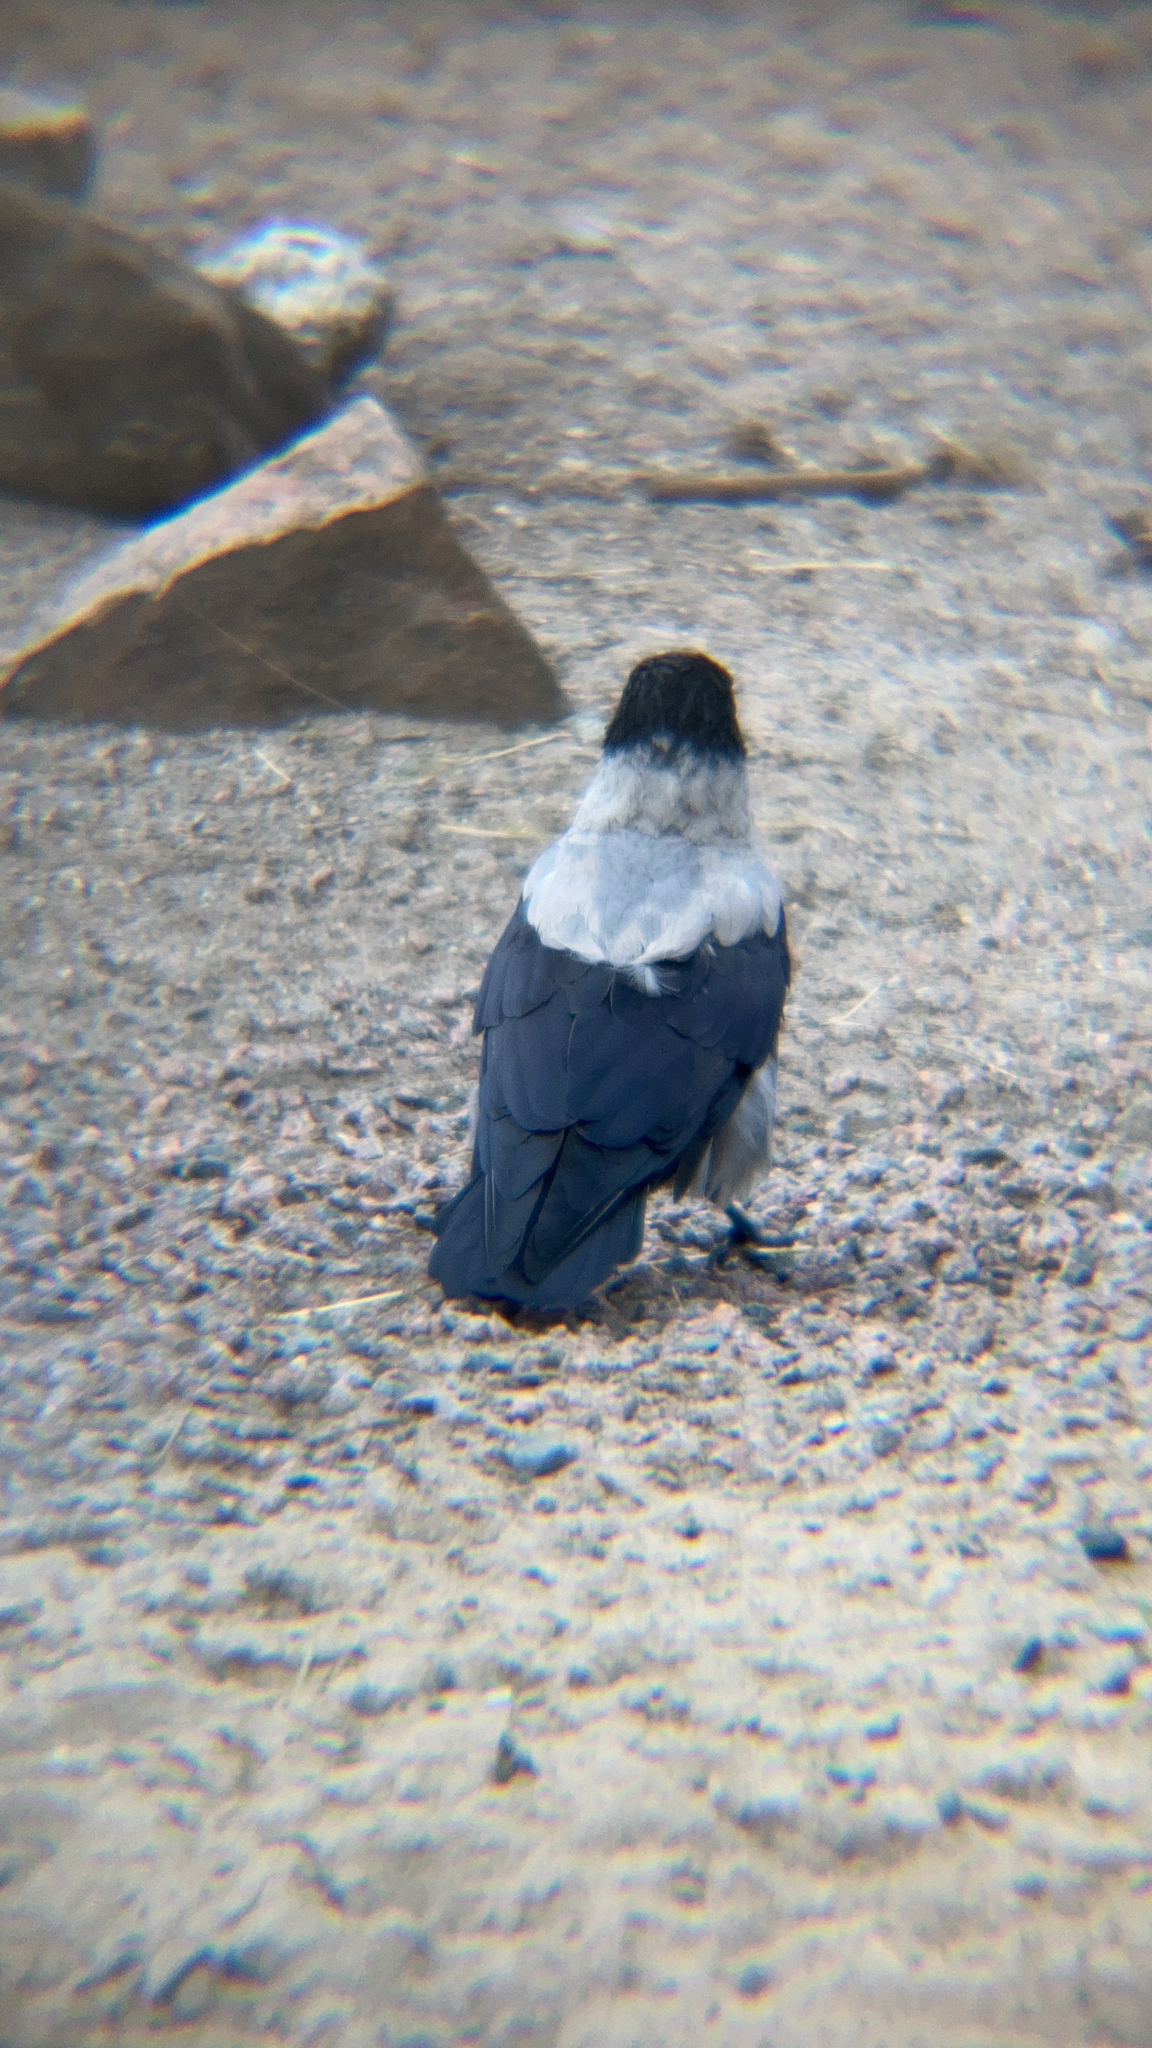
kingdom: Animalia
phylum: Chordata
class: Aves
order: Passeriformes
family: Corvidae
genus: Corvus
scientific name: Corvus cornix
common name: Hooded crow
